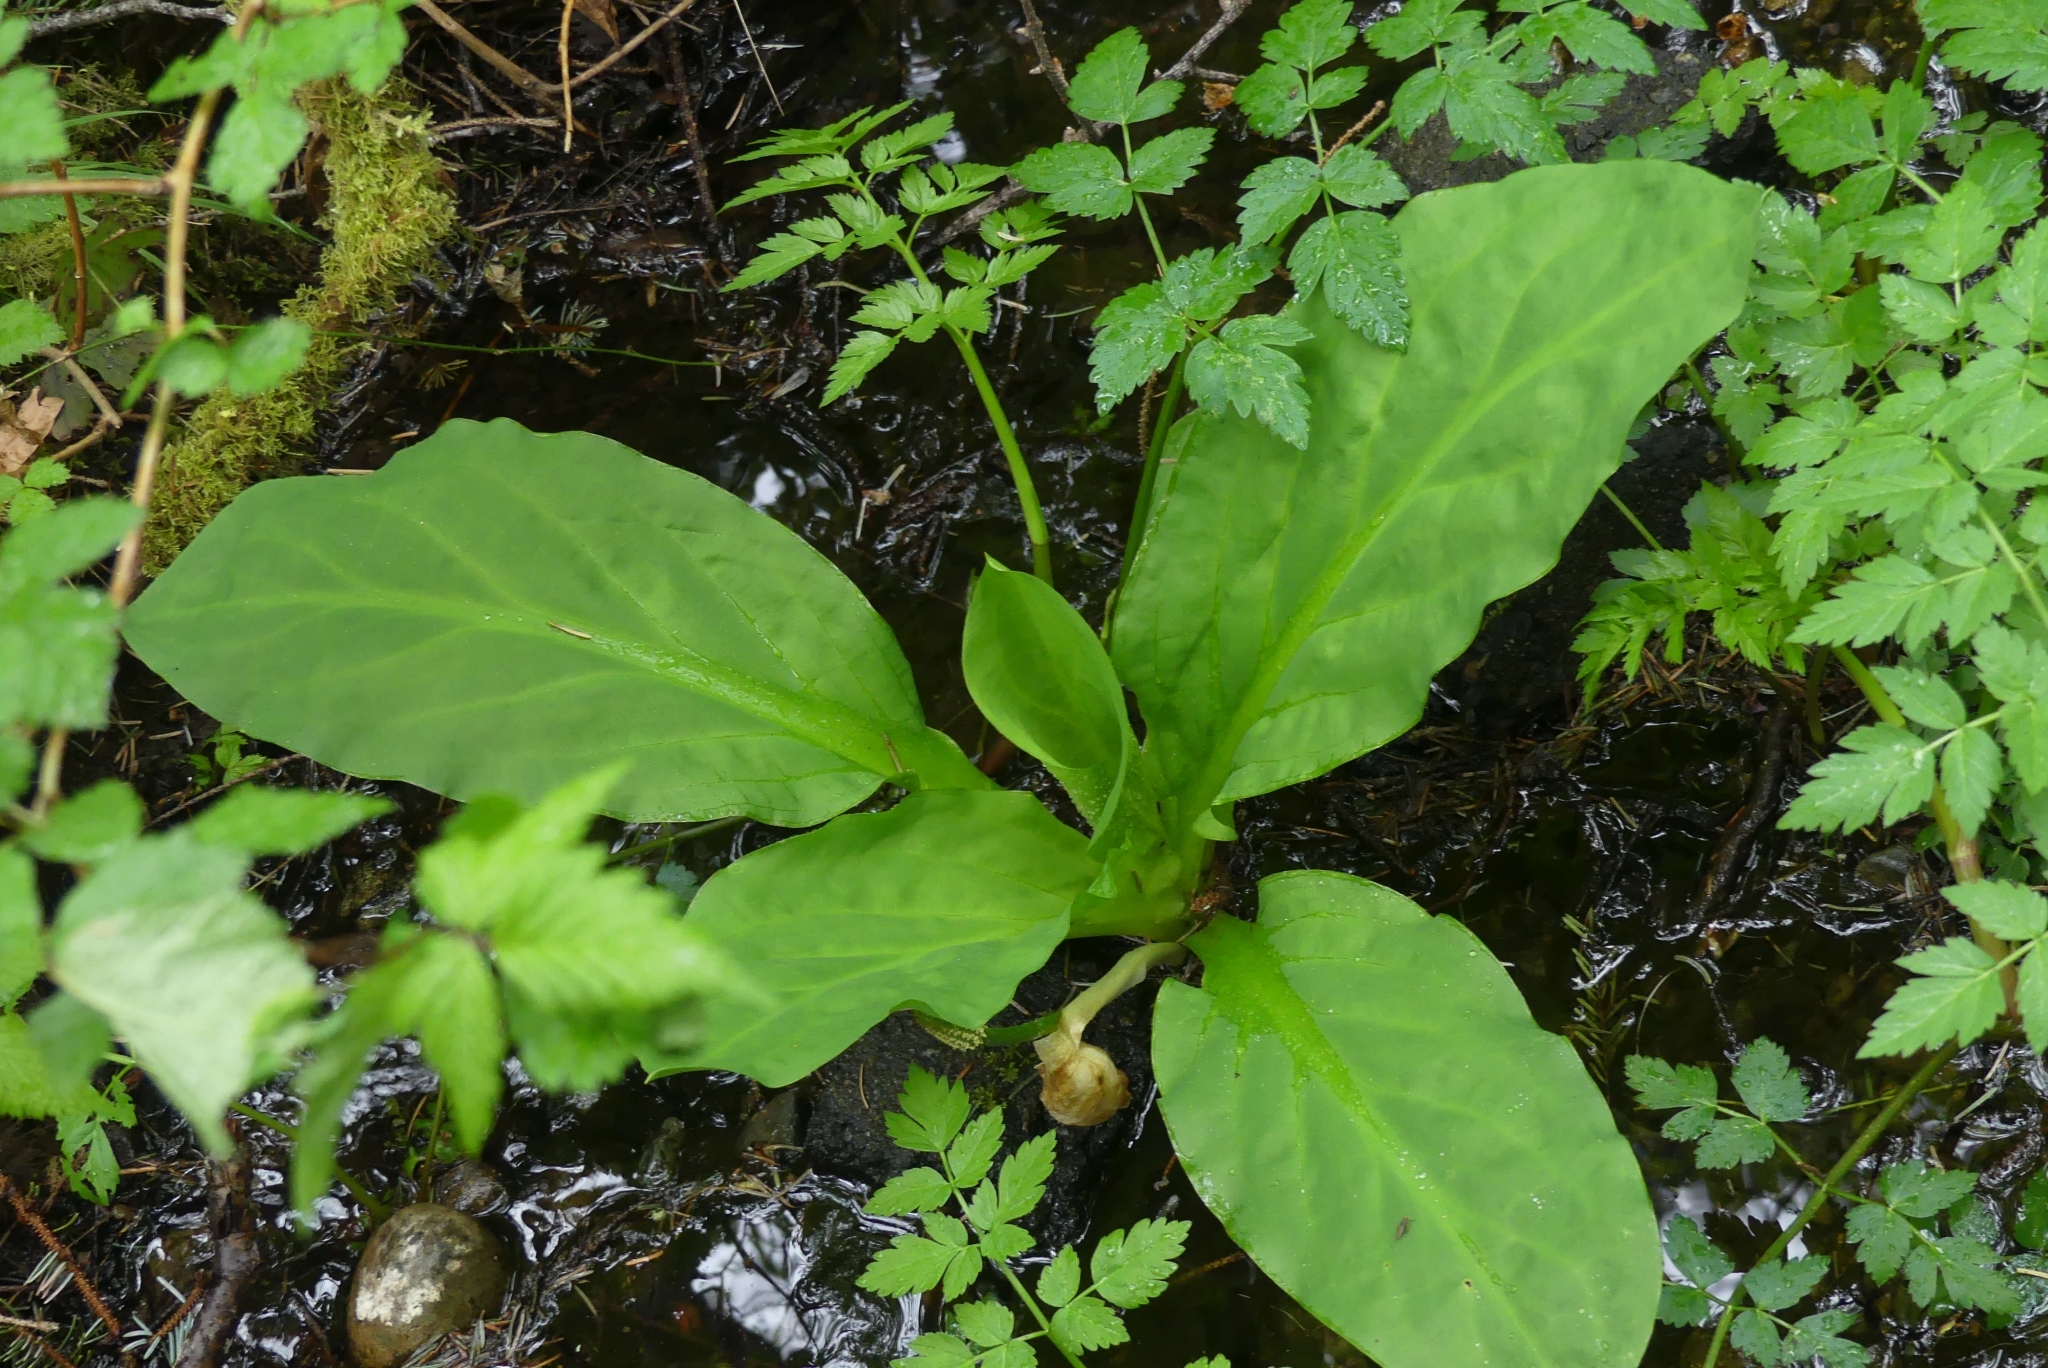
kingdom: Plantae
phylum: Tracheophyta
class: Liliopsida
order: Alismatales
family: Araceae
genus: Lysichiton
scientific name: Lysichiton americanus
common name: American skunk cabbage
